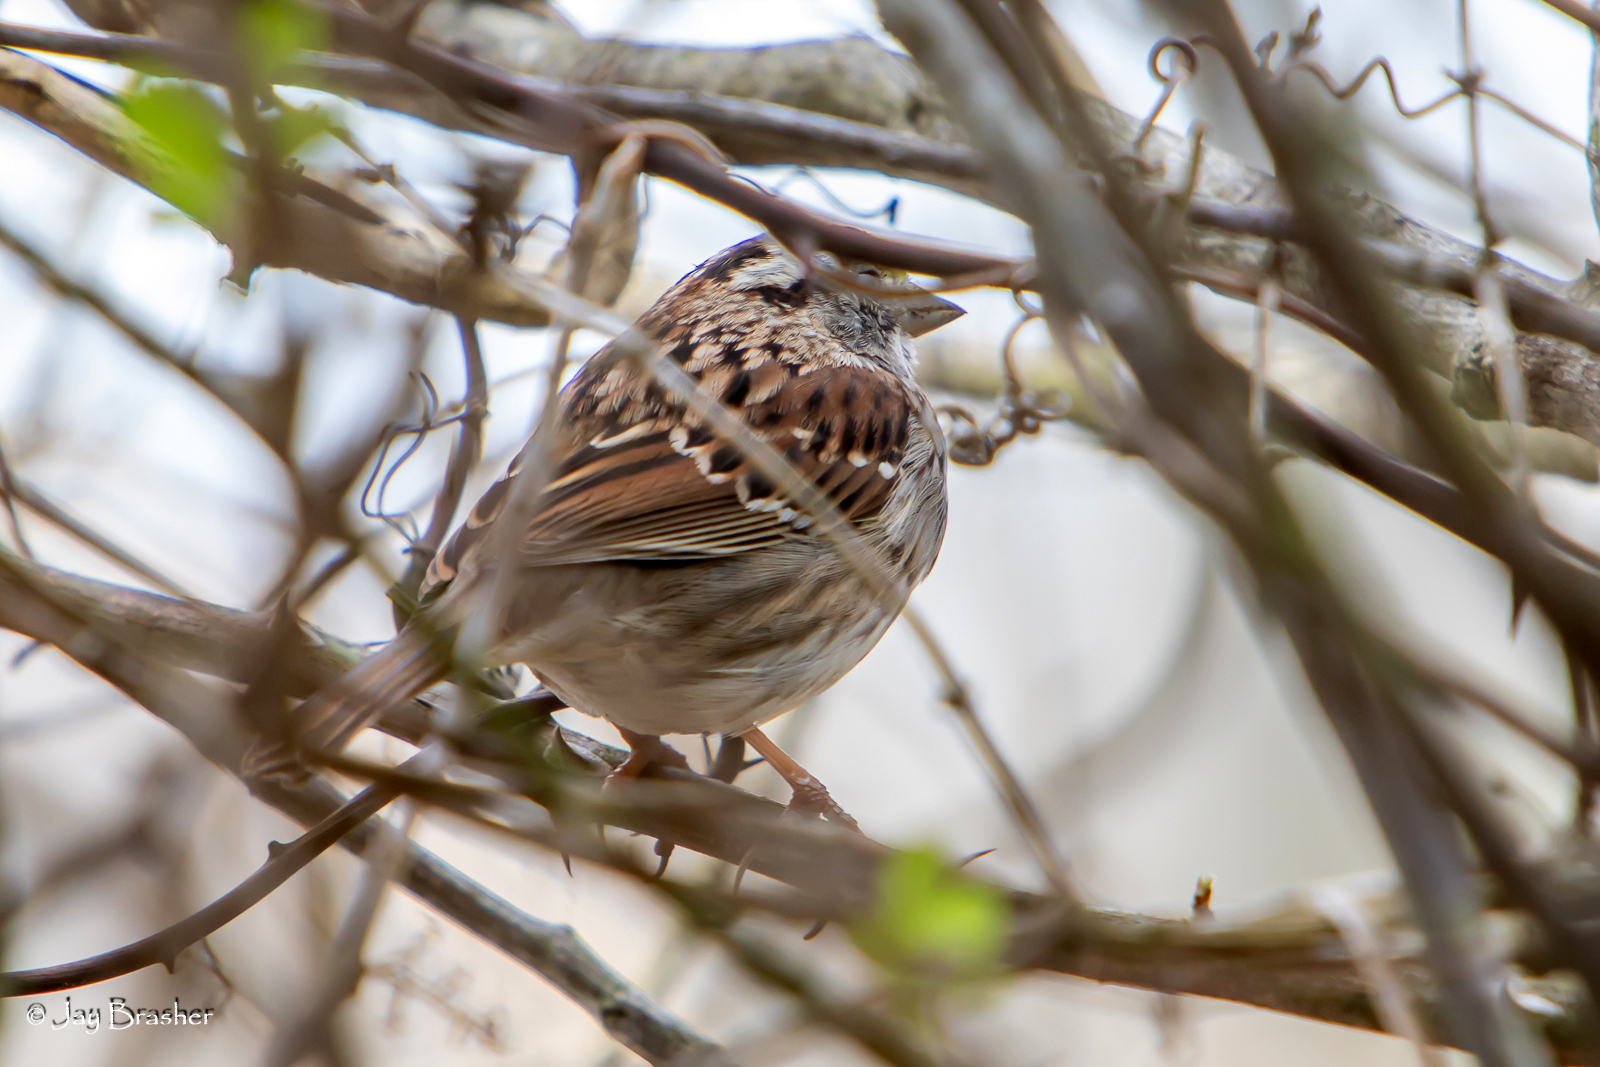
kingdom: Animalia
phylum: Chordata
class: Aves
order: Passeriformes
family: Passerellidae
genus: Zonotrichia
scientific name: Zonotrichia albicollis
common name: White-throated sparrow
